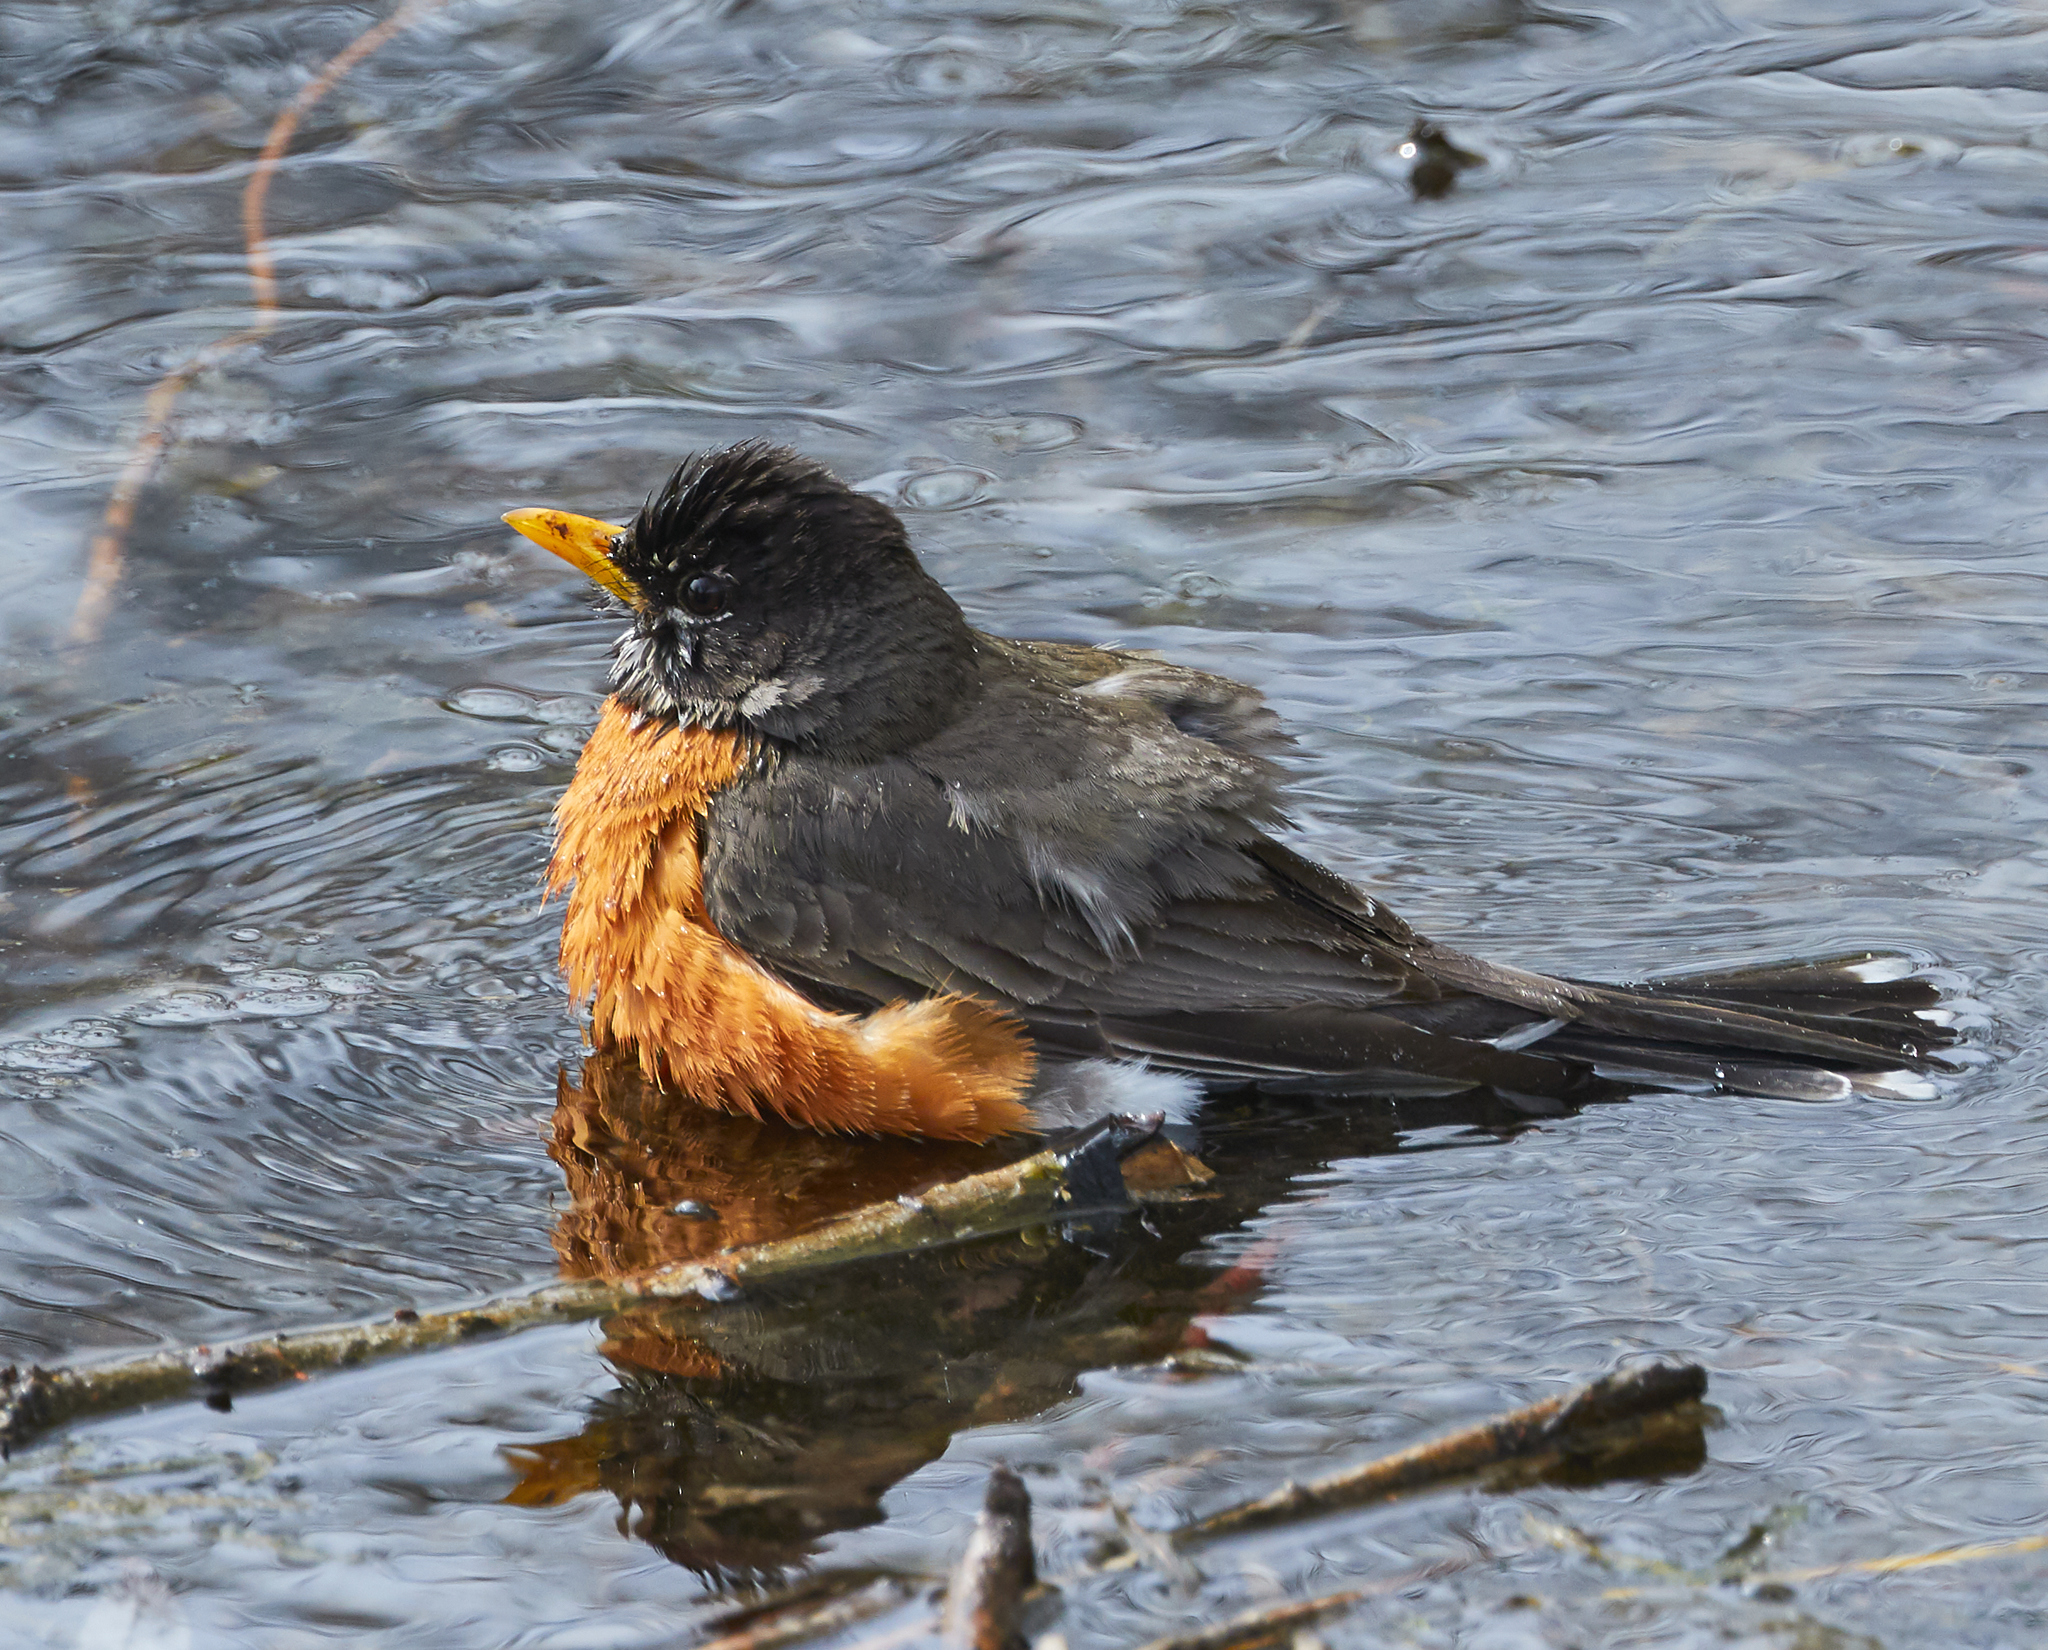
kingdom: Animalia
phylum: Chordata
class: Aves
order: Passeriformes
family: Turdidae
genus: Turdus
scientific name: Turdus migratorius
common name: American robin
